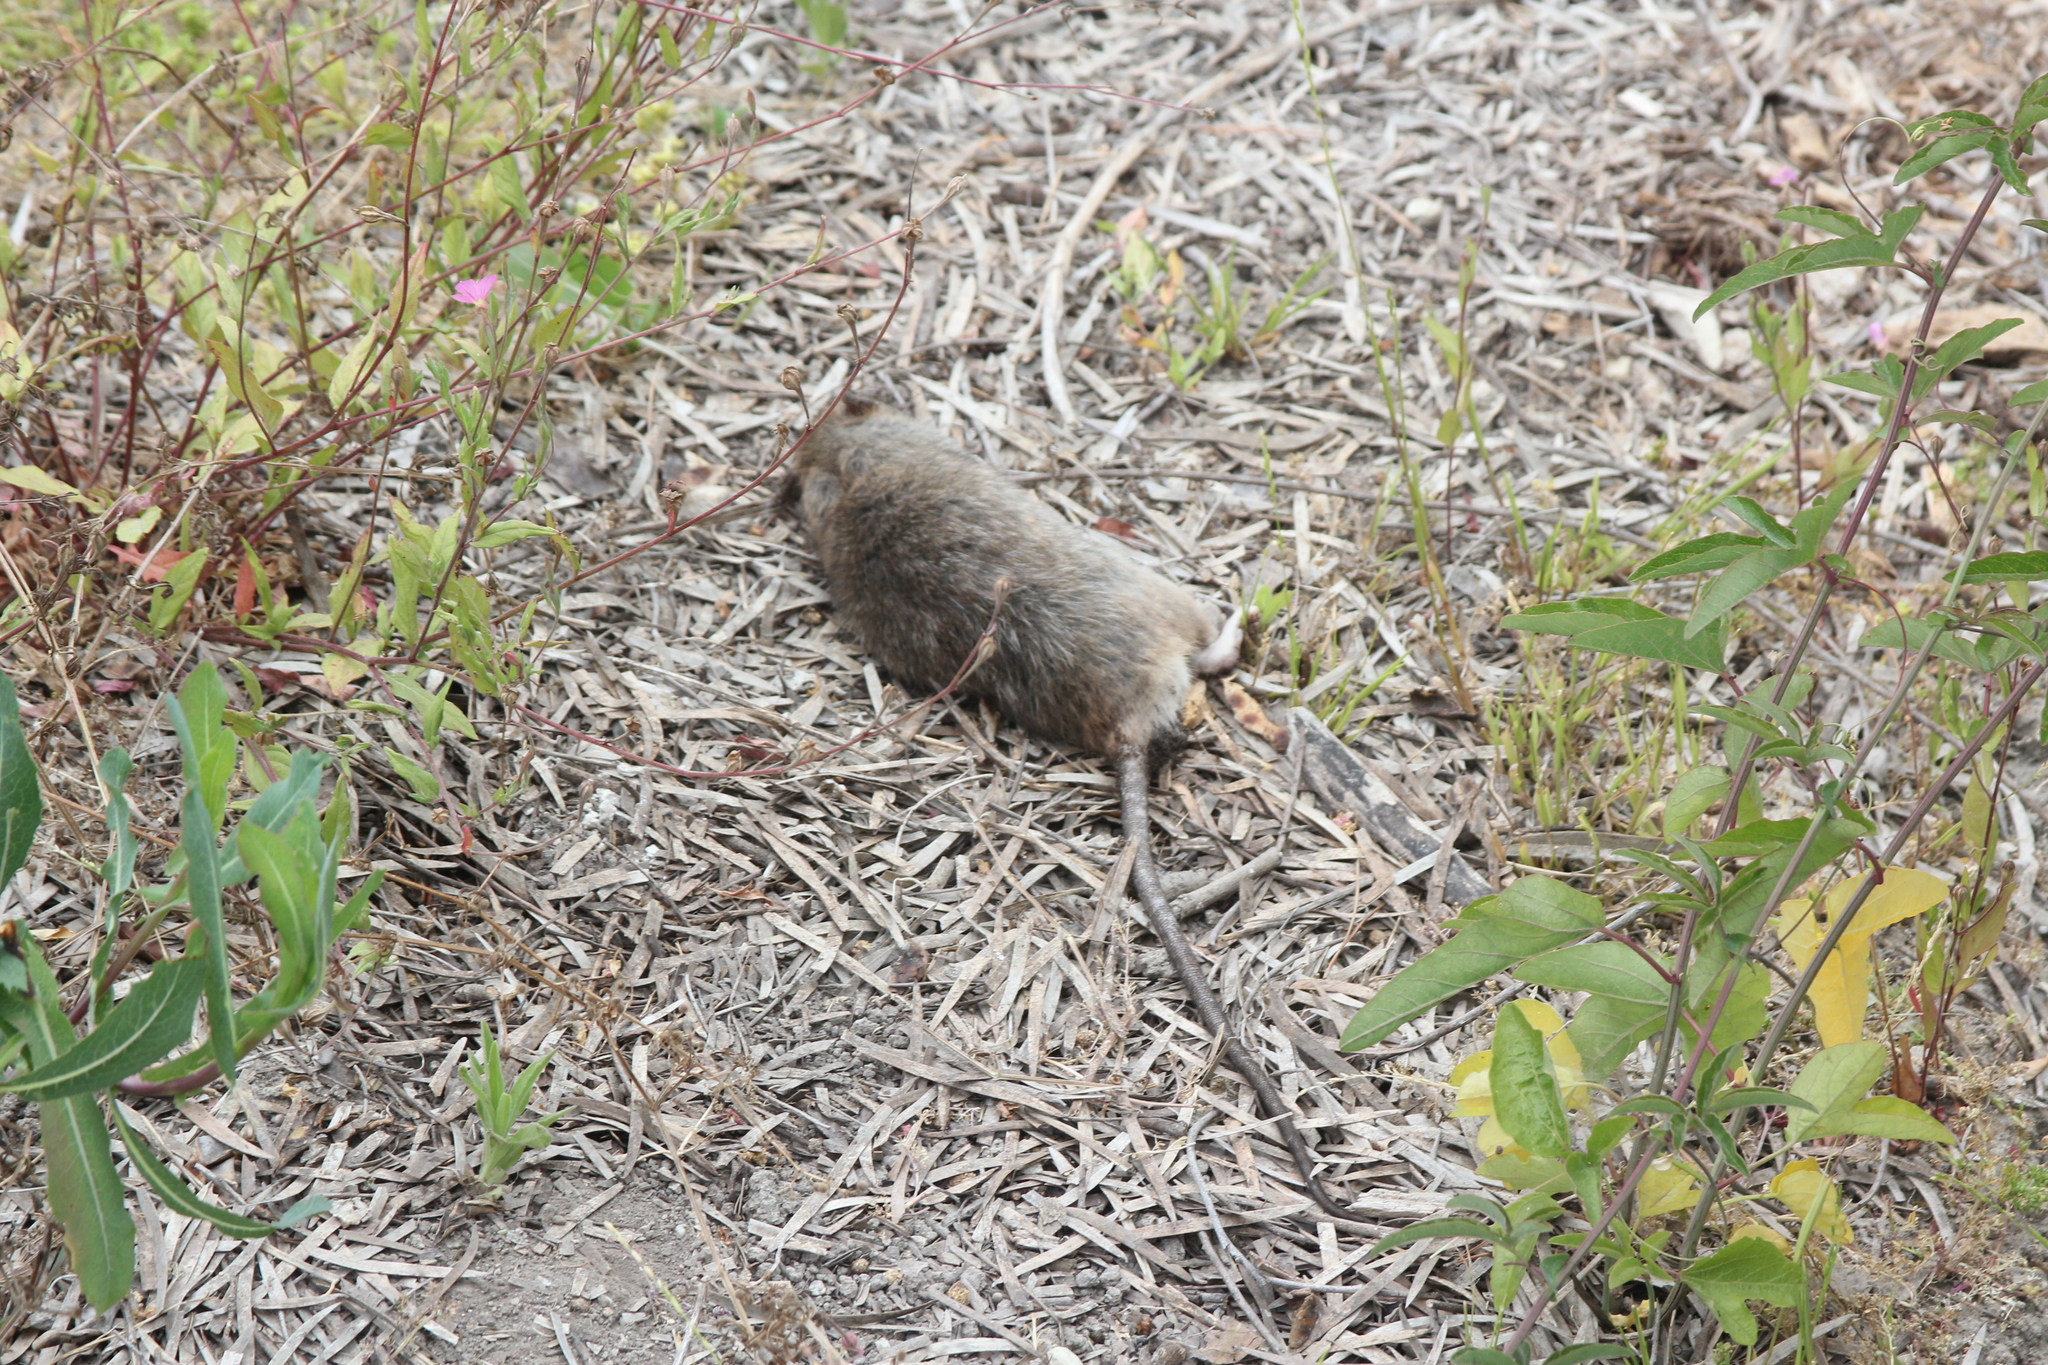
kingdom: Animalia
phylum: Chordata
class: Mammalia
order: Rodentia
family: Muridae
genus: Rattus
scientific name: Rattus rattus
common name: Black rat
